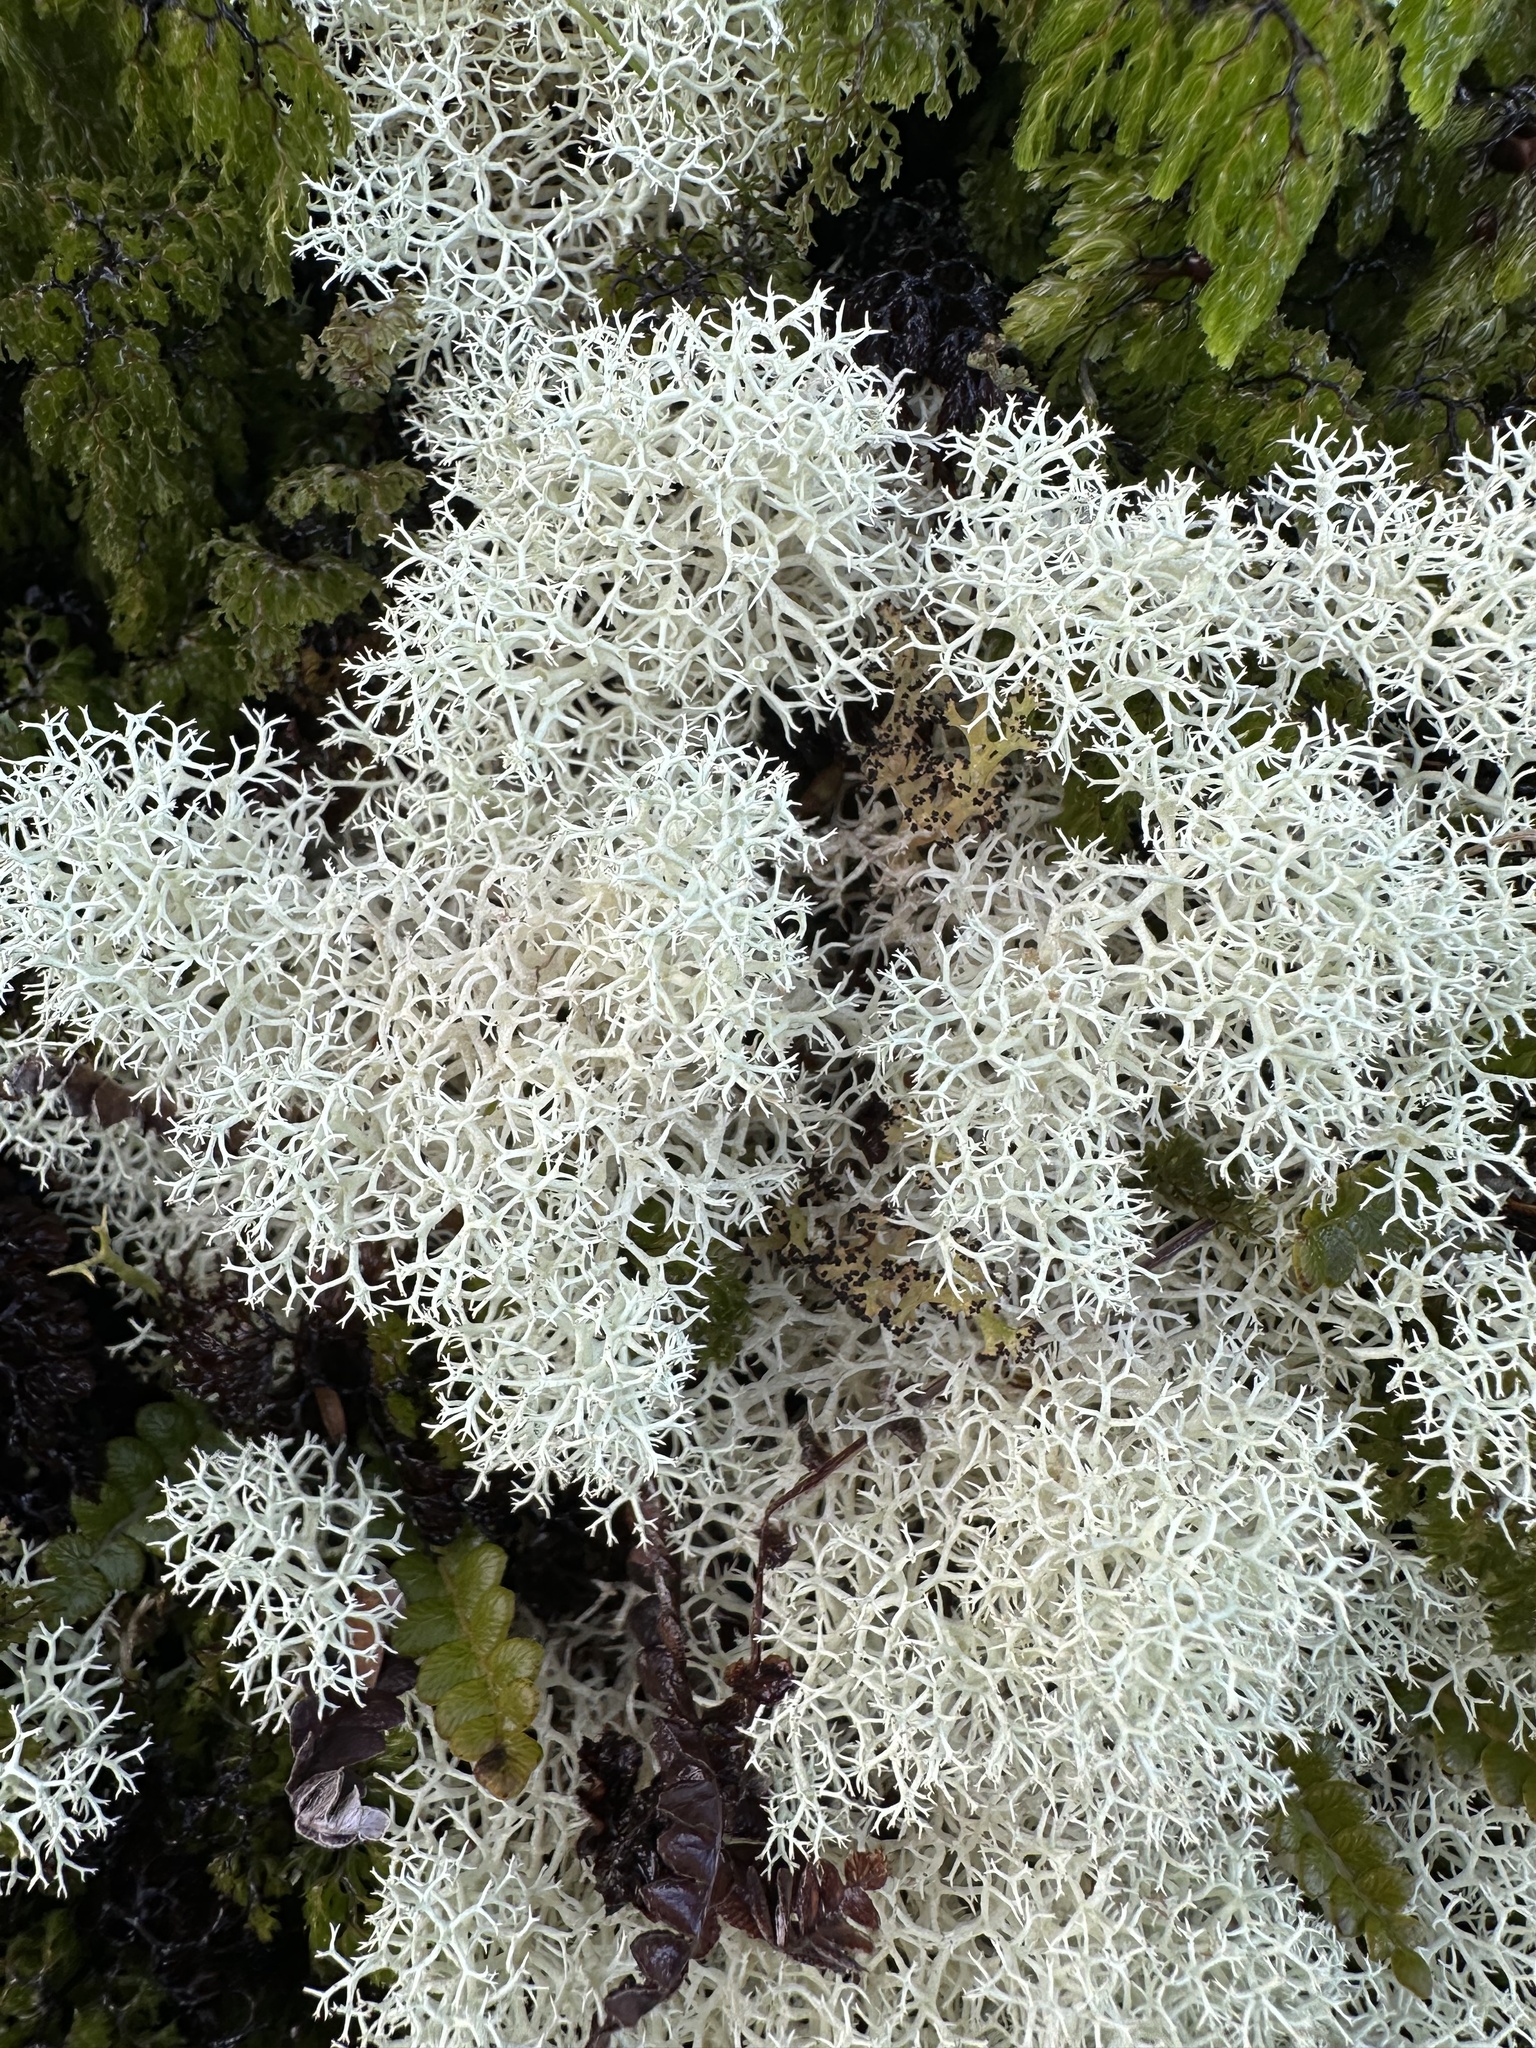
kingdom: Fungi
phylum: Ascomycota
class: Lecanoromycetes
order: Lecanorales
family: Cladoniaceae
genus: Cladonia
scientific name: Cladonia confusa
